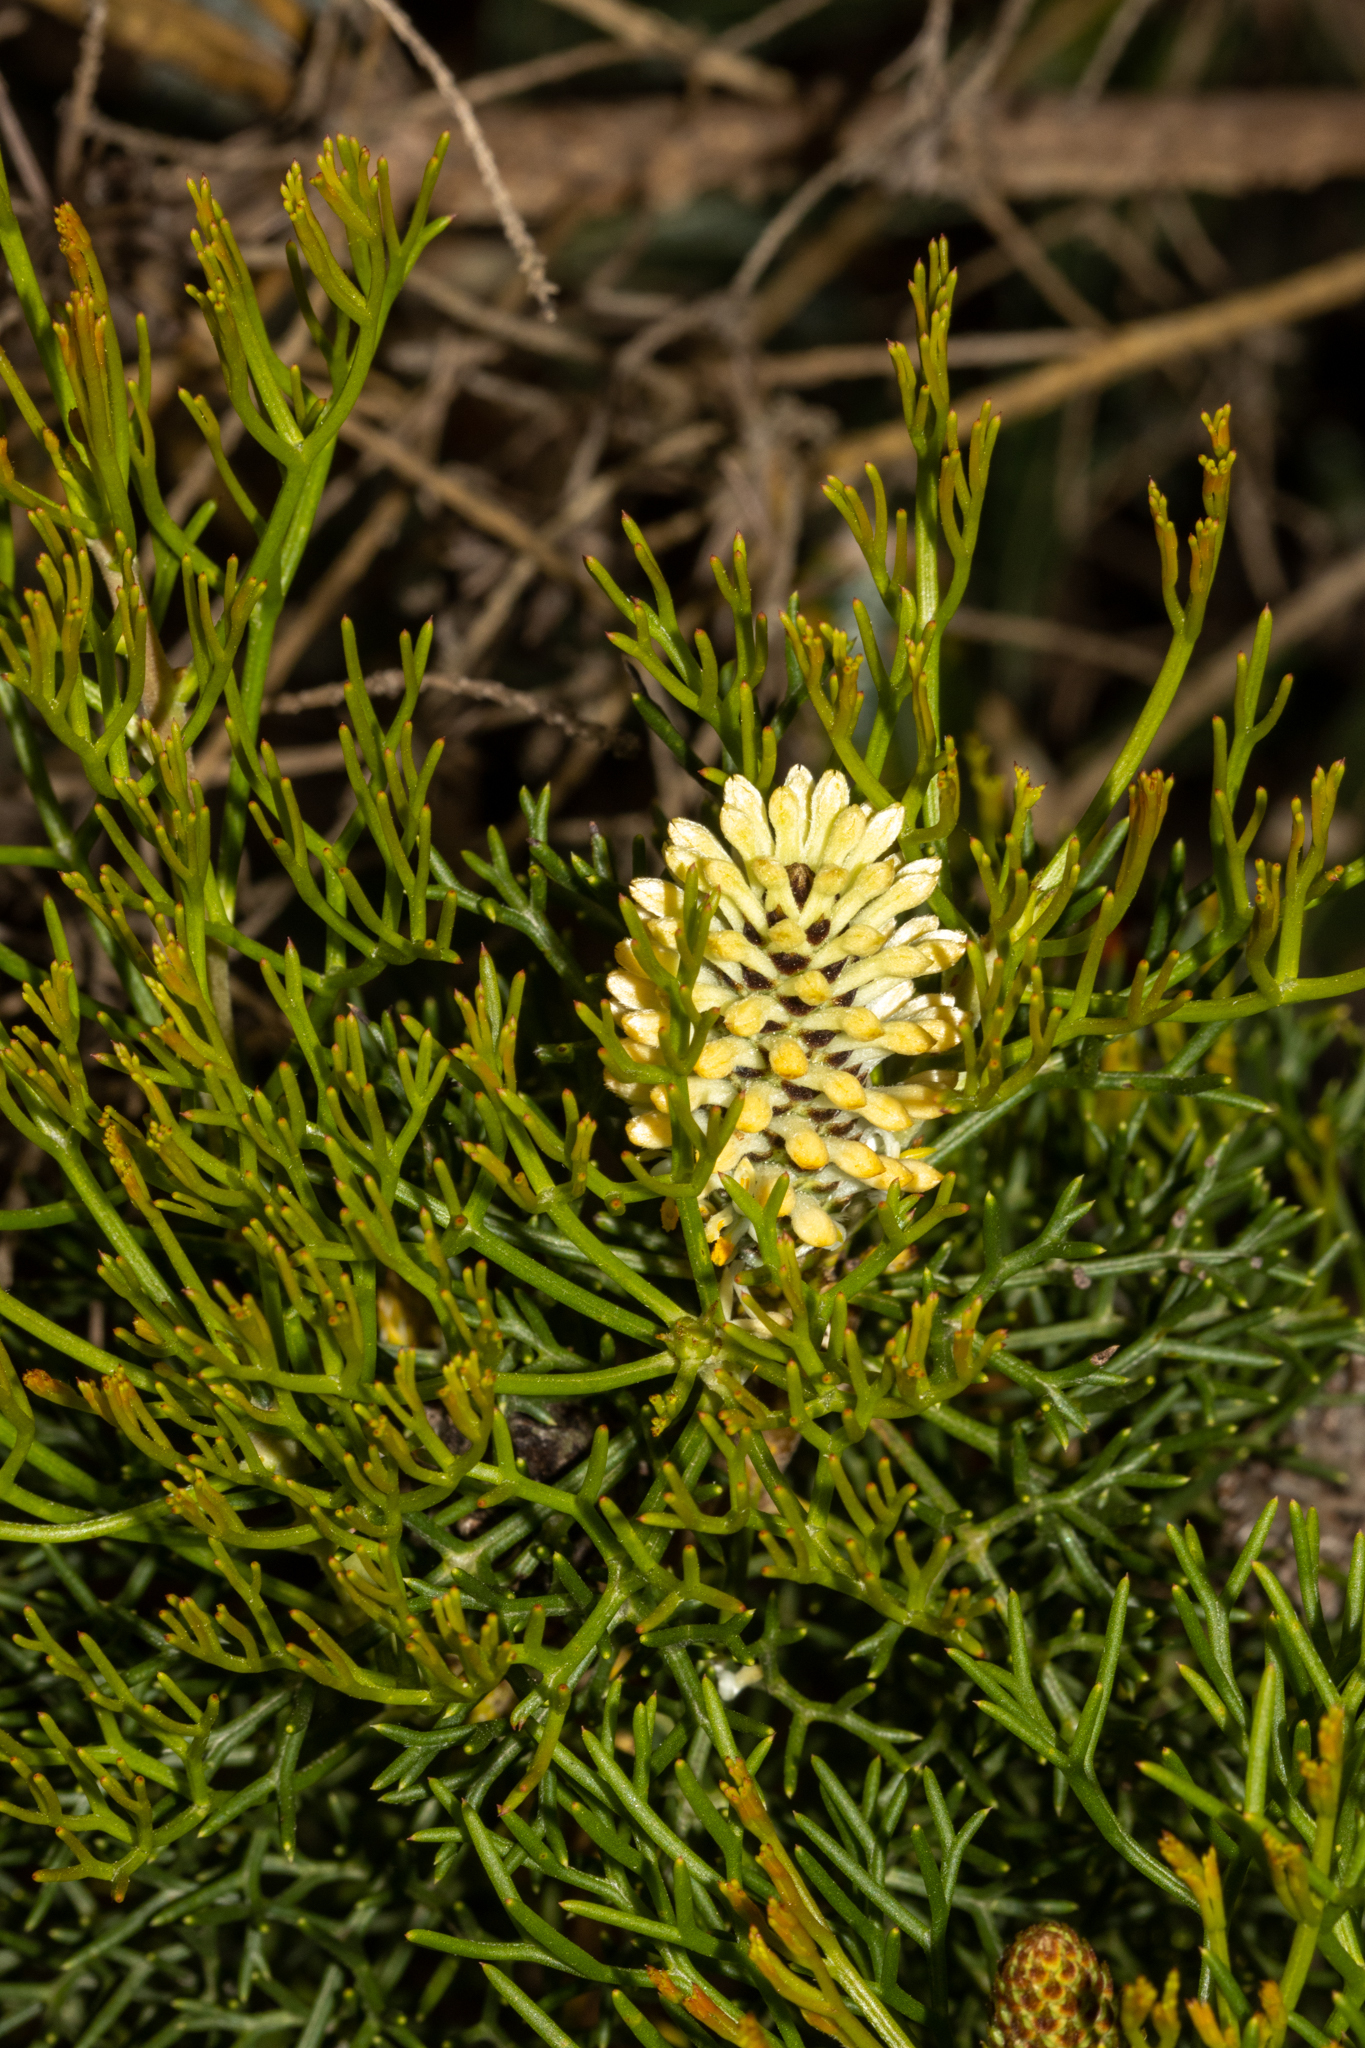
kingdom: Plantae
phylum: Tracheophyta
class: Magnoliopsida
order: Proteales
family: Proteaceae
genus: Petrophile
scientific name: Petrophile sessilis
